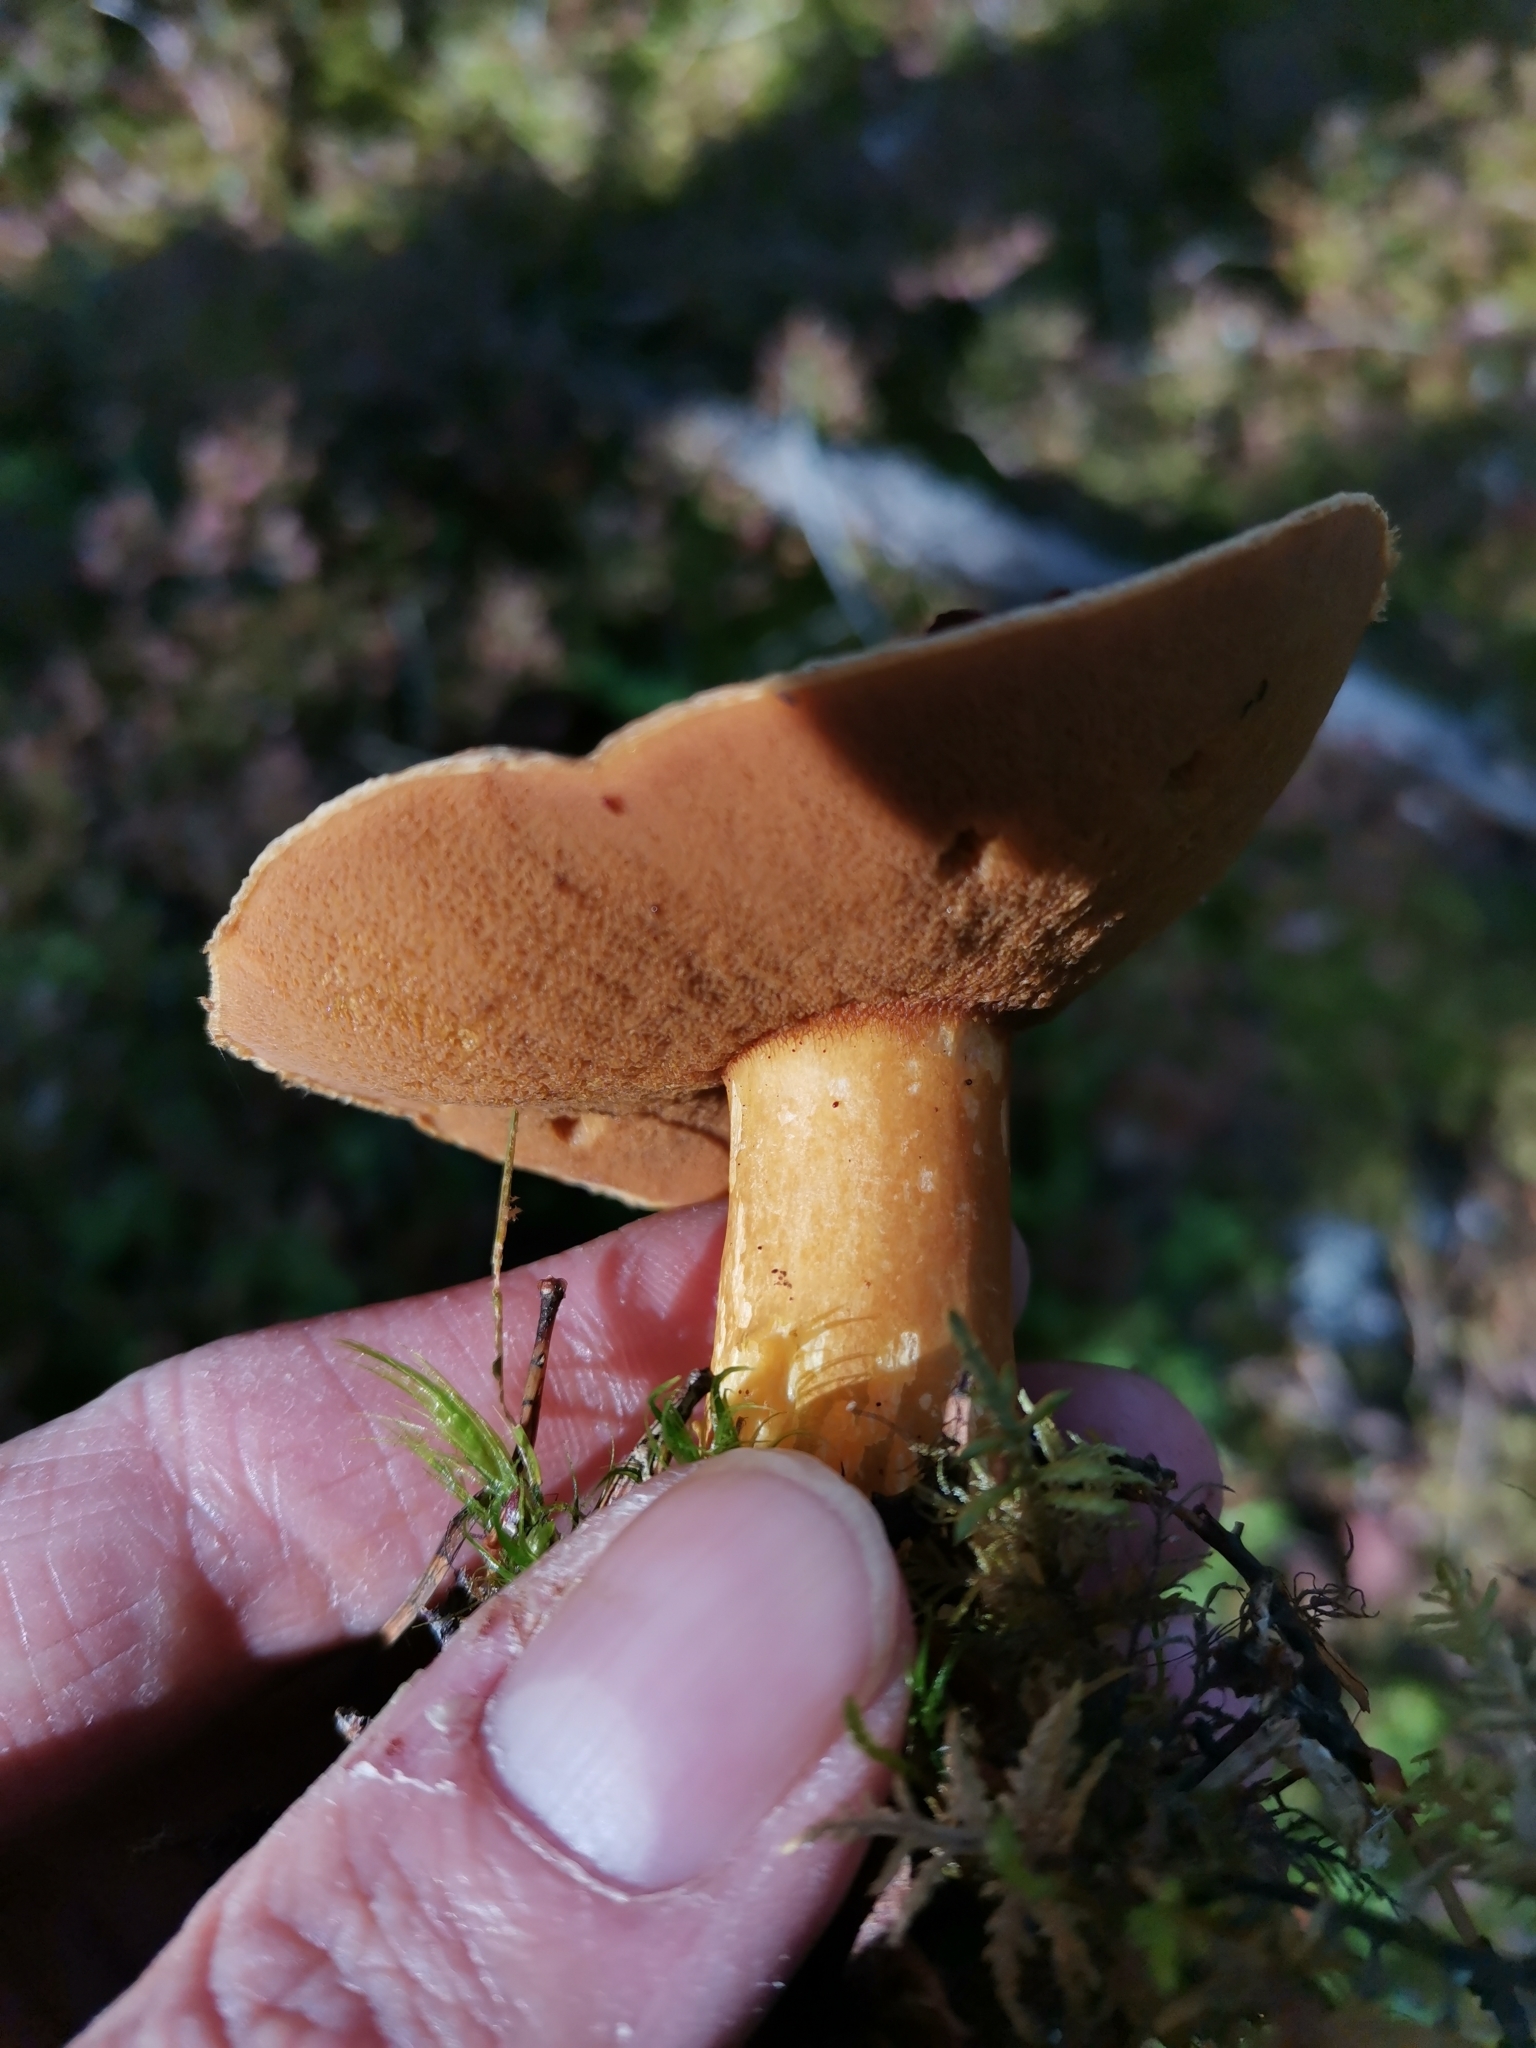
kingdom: Fungi
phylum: Basidiomycota
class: Agaricomycetes
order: Boletales
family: Suillaceae
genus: Suillus
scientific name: Suillus variegatus
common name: Velvet bolete
